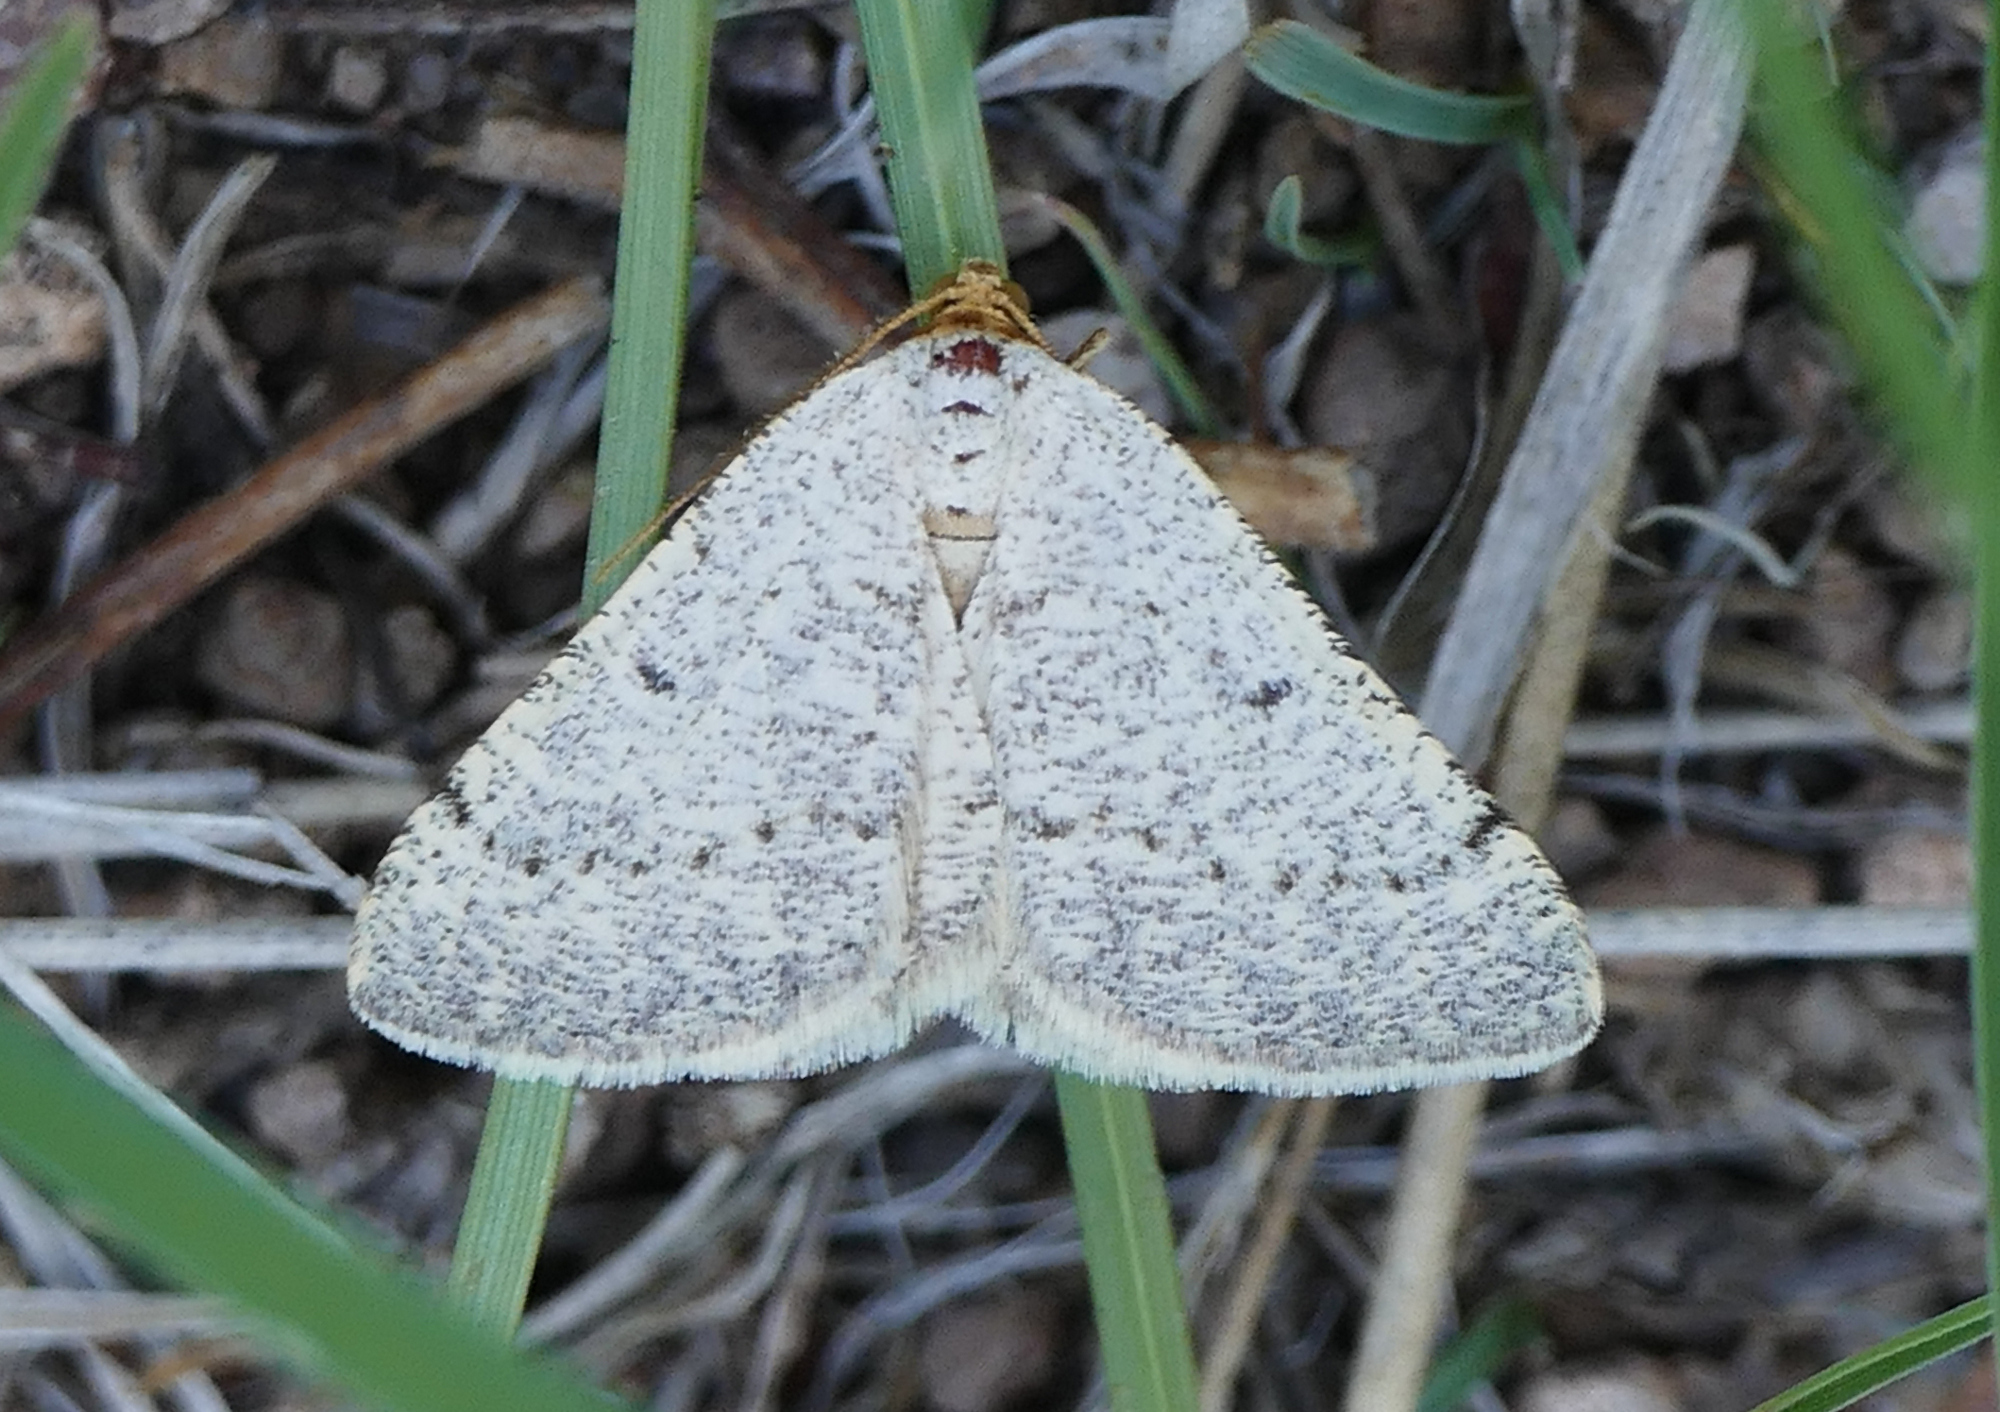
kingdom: Animalia
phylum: Arthropoda
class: Insecta
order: Lepidoptera
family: Geometridae
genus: Macaria
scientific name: Macaria mendicata
